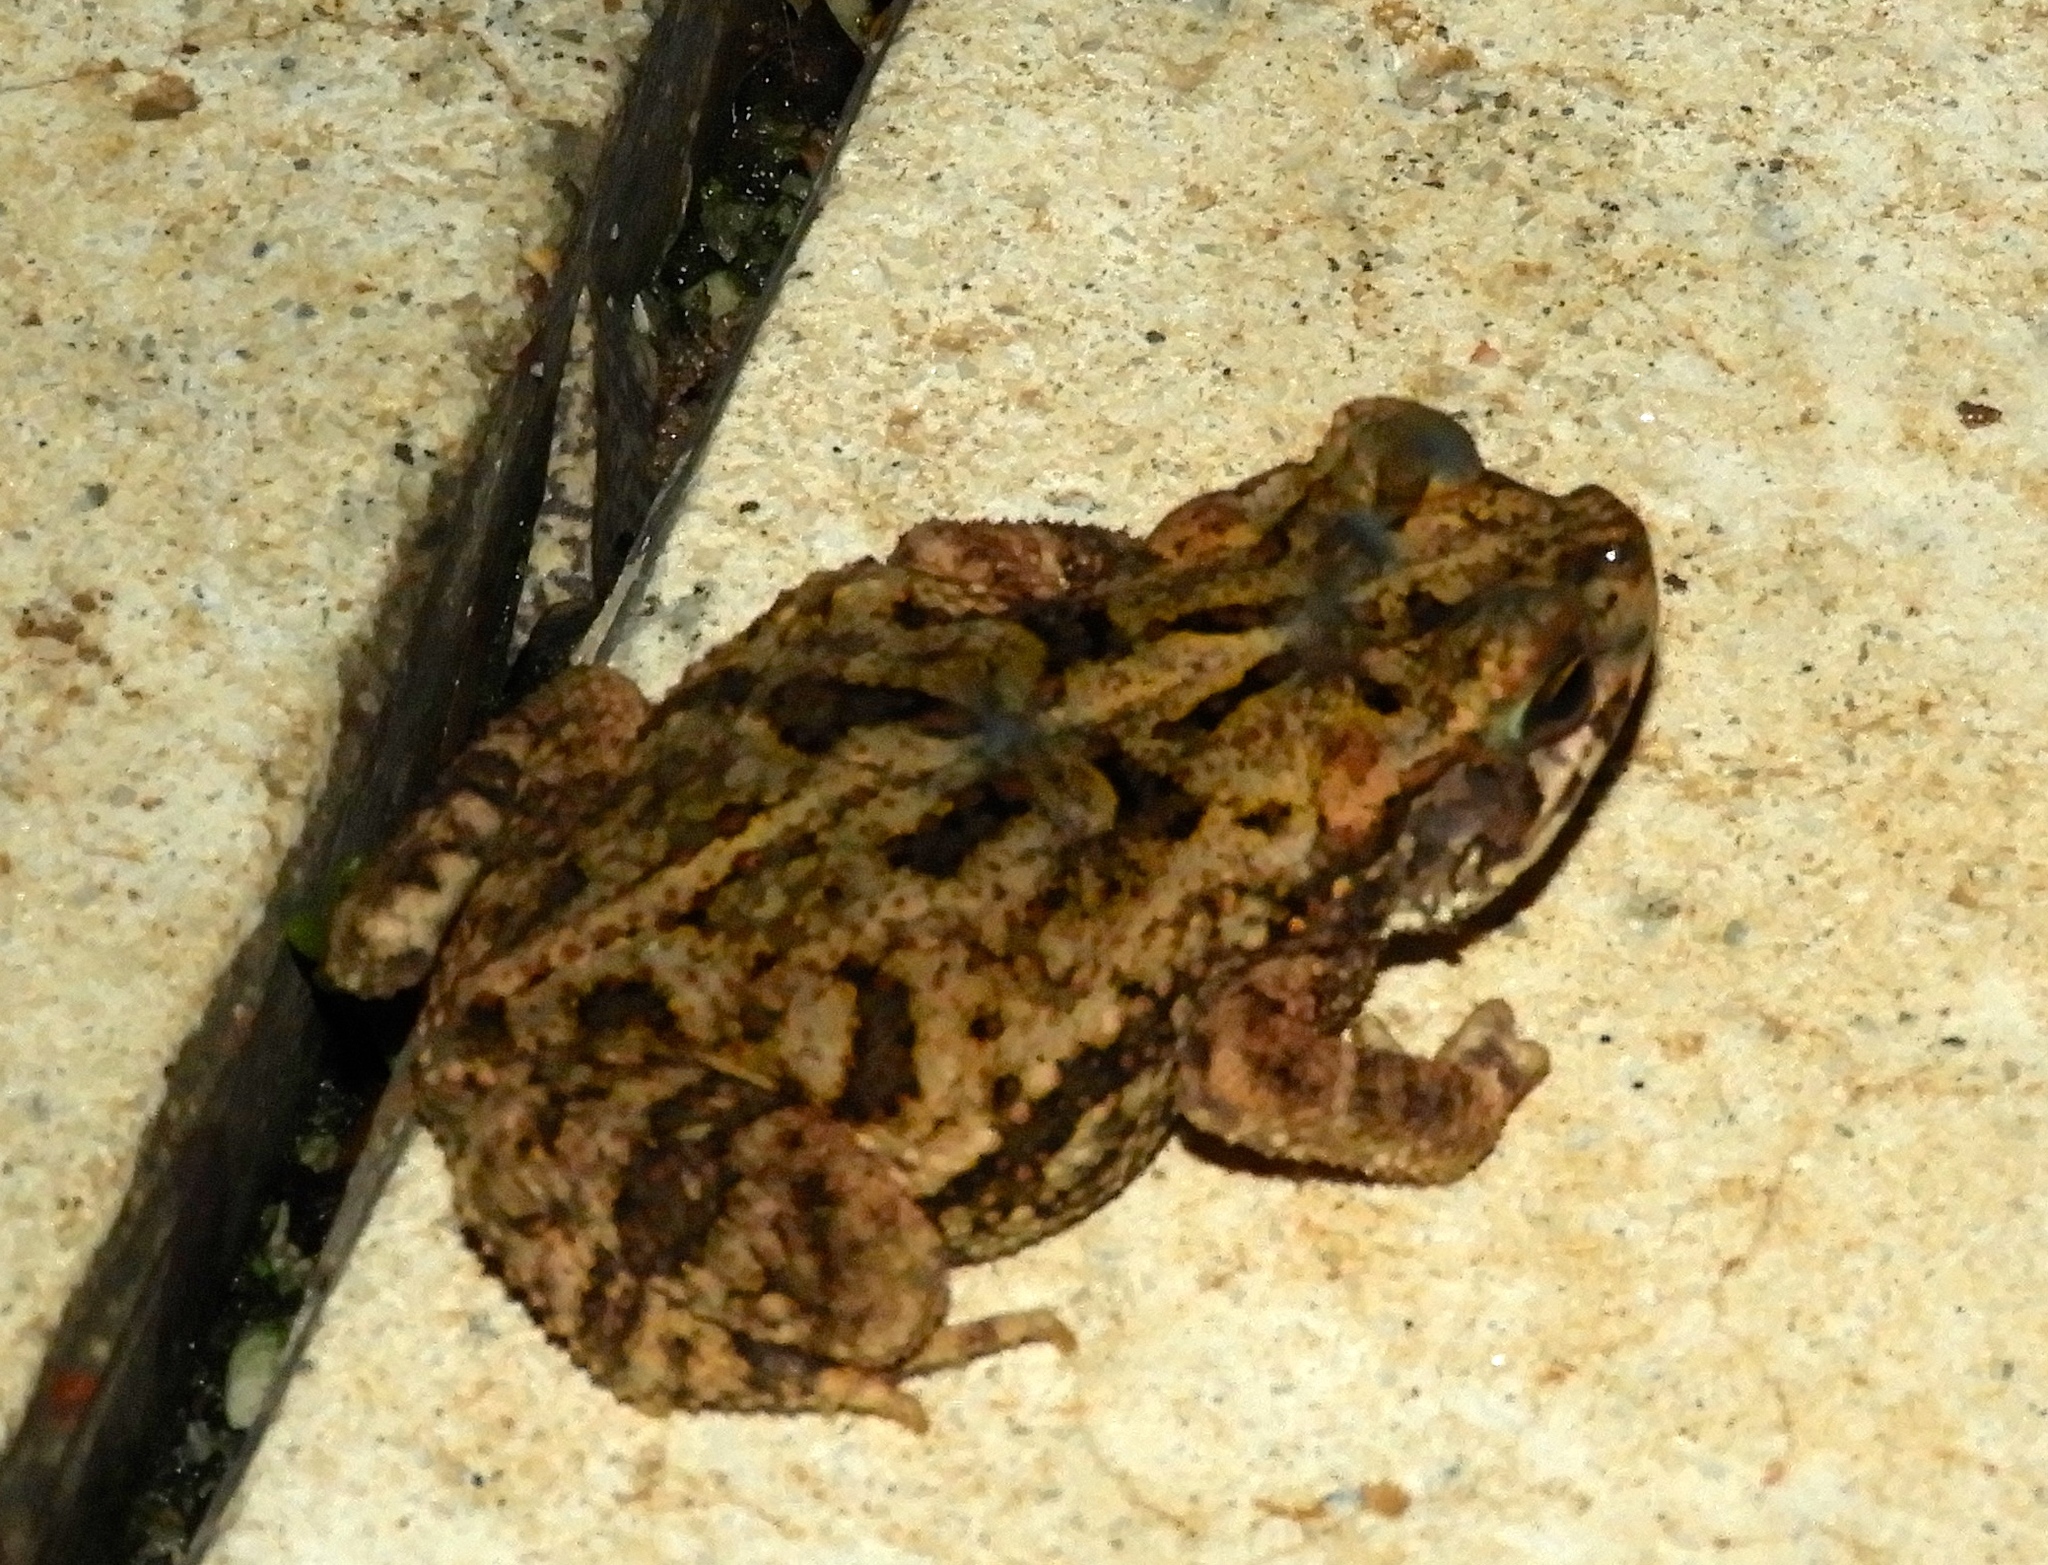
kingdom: Animalia
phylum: Chordata
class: Amphibia
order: Anura
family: Bufonidae
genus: Incilius
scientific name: Incilius mazatlanensis
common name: Sinaloa toad
